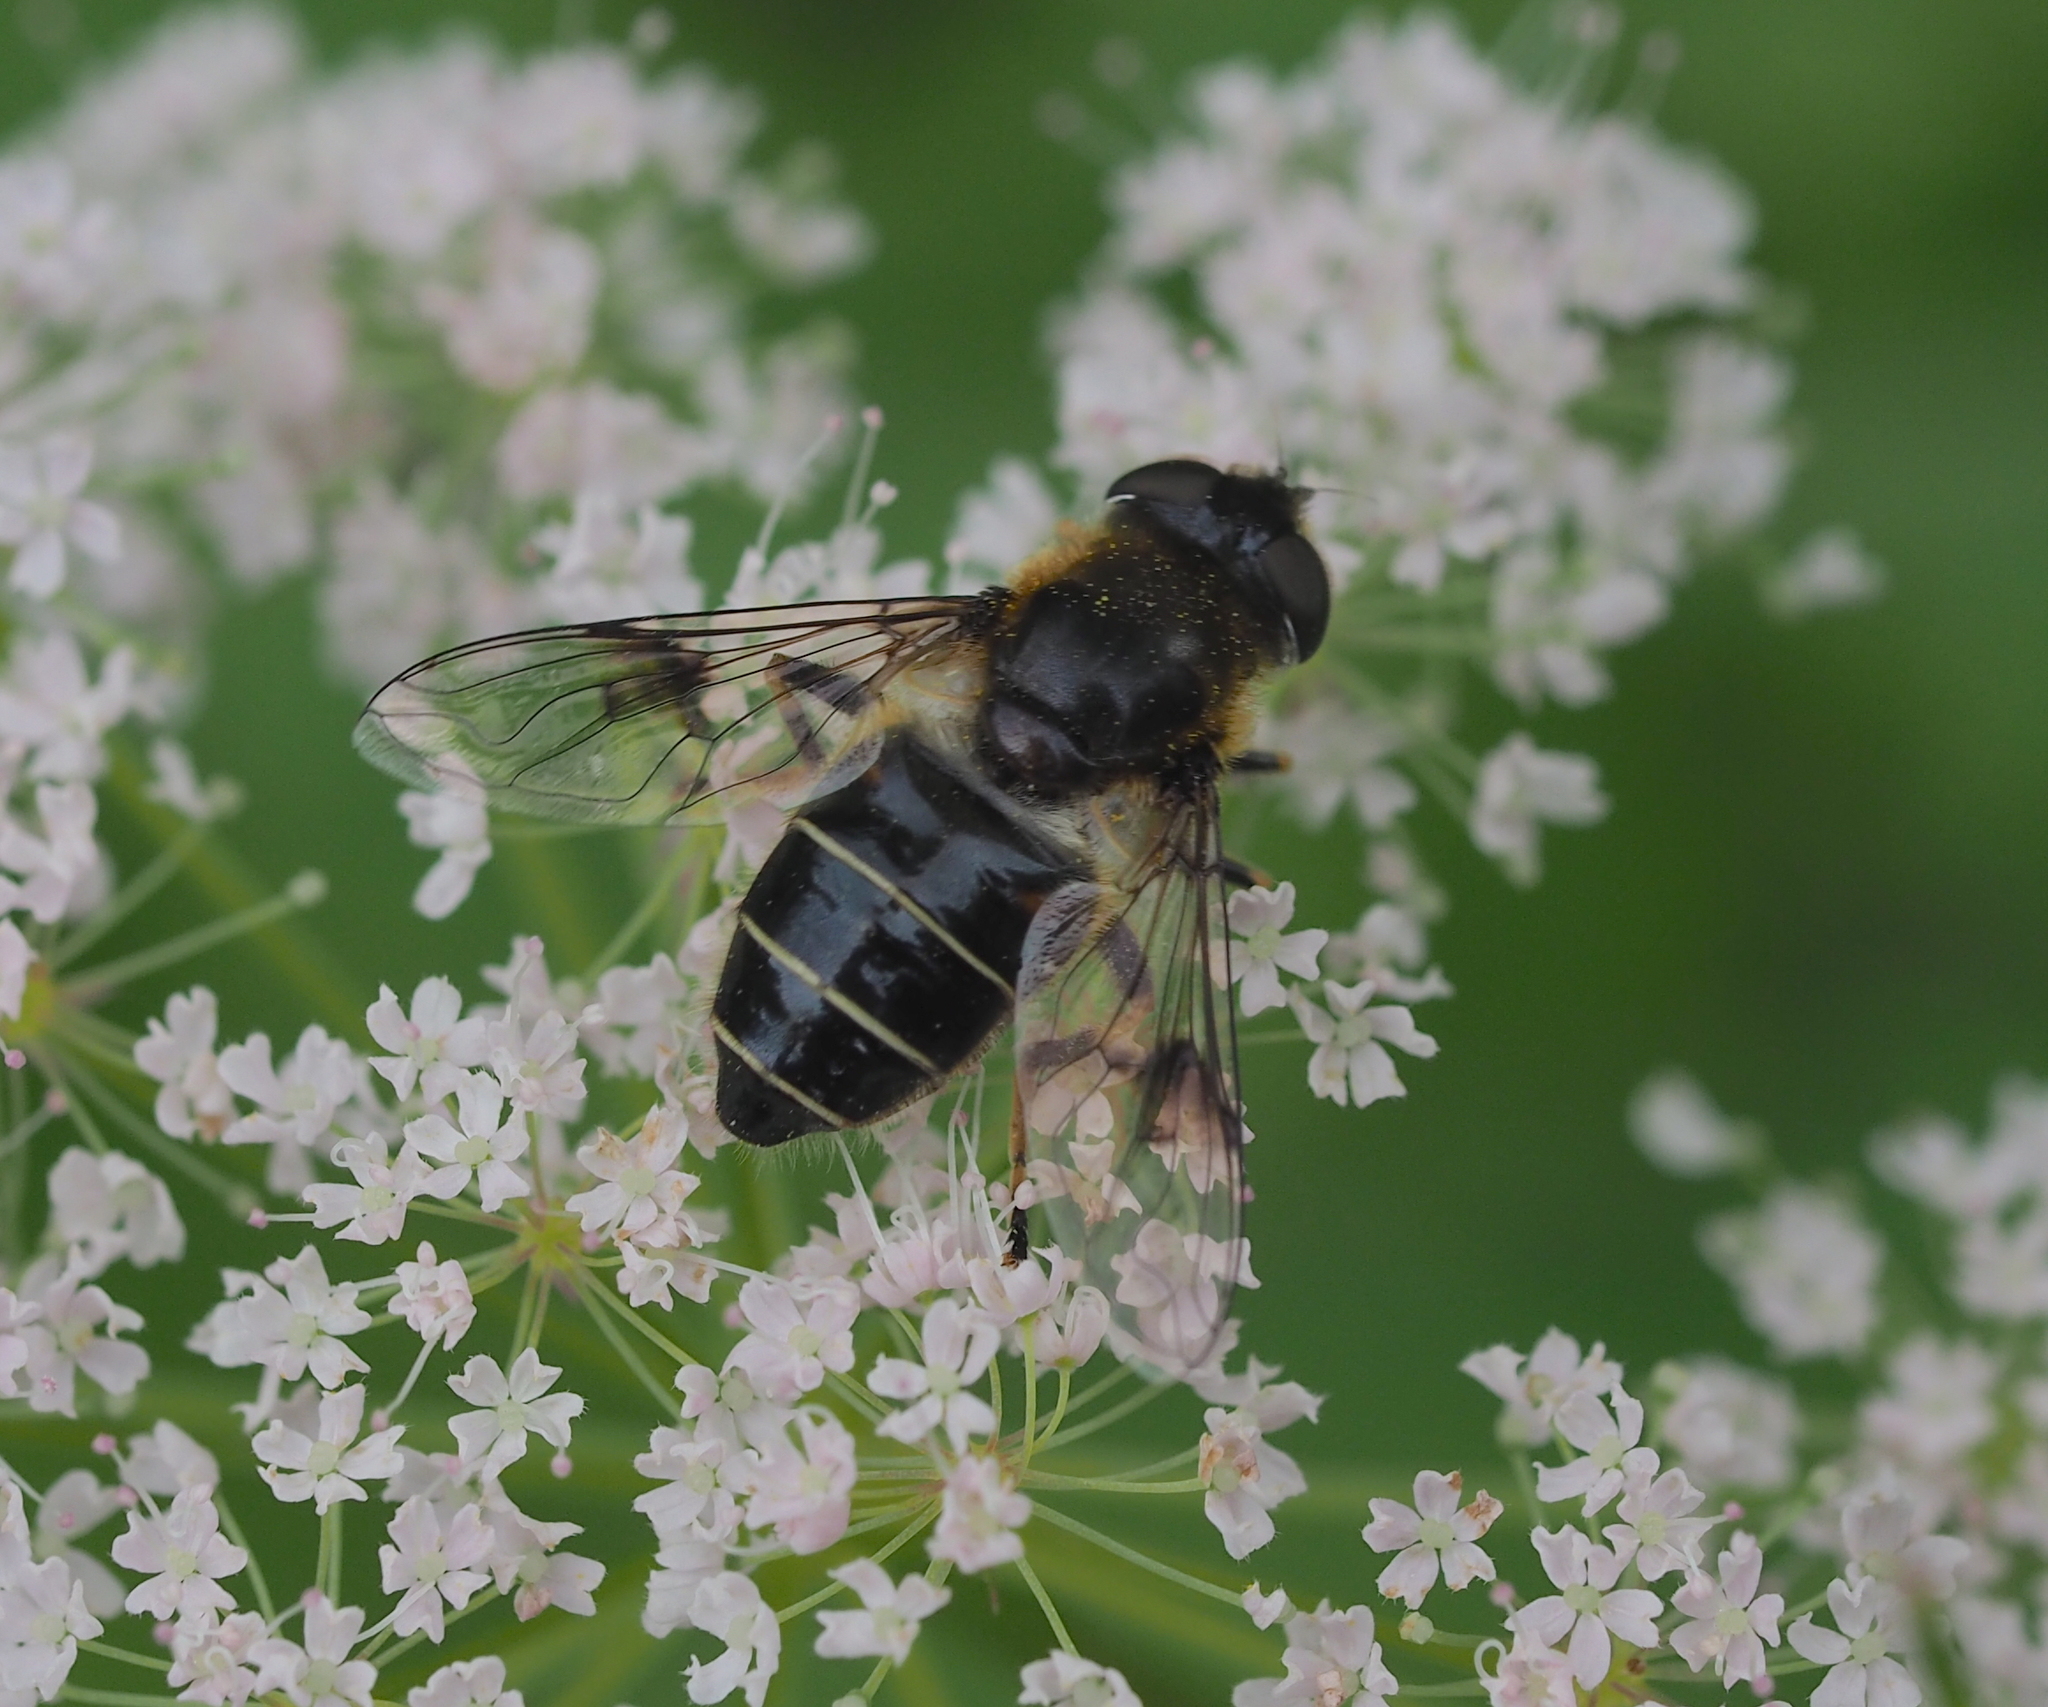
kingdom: Animalia
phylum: Arthropoda
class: Insecta
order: Diptera
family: Syrphidae
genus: Eristalis
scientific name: Eristalis rupium
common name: Hover fly
